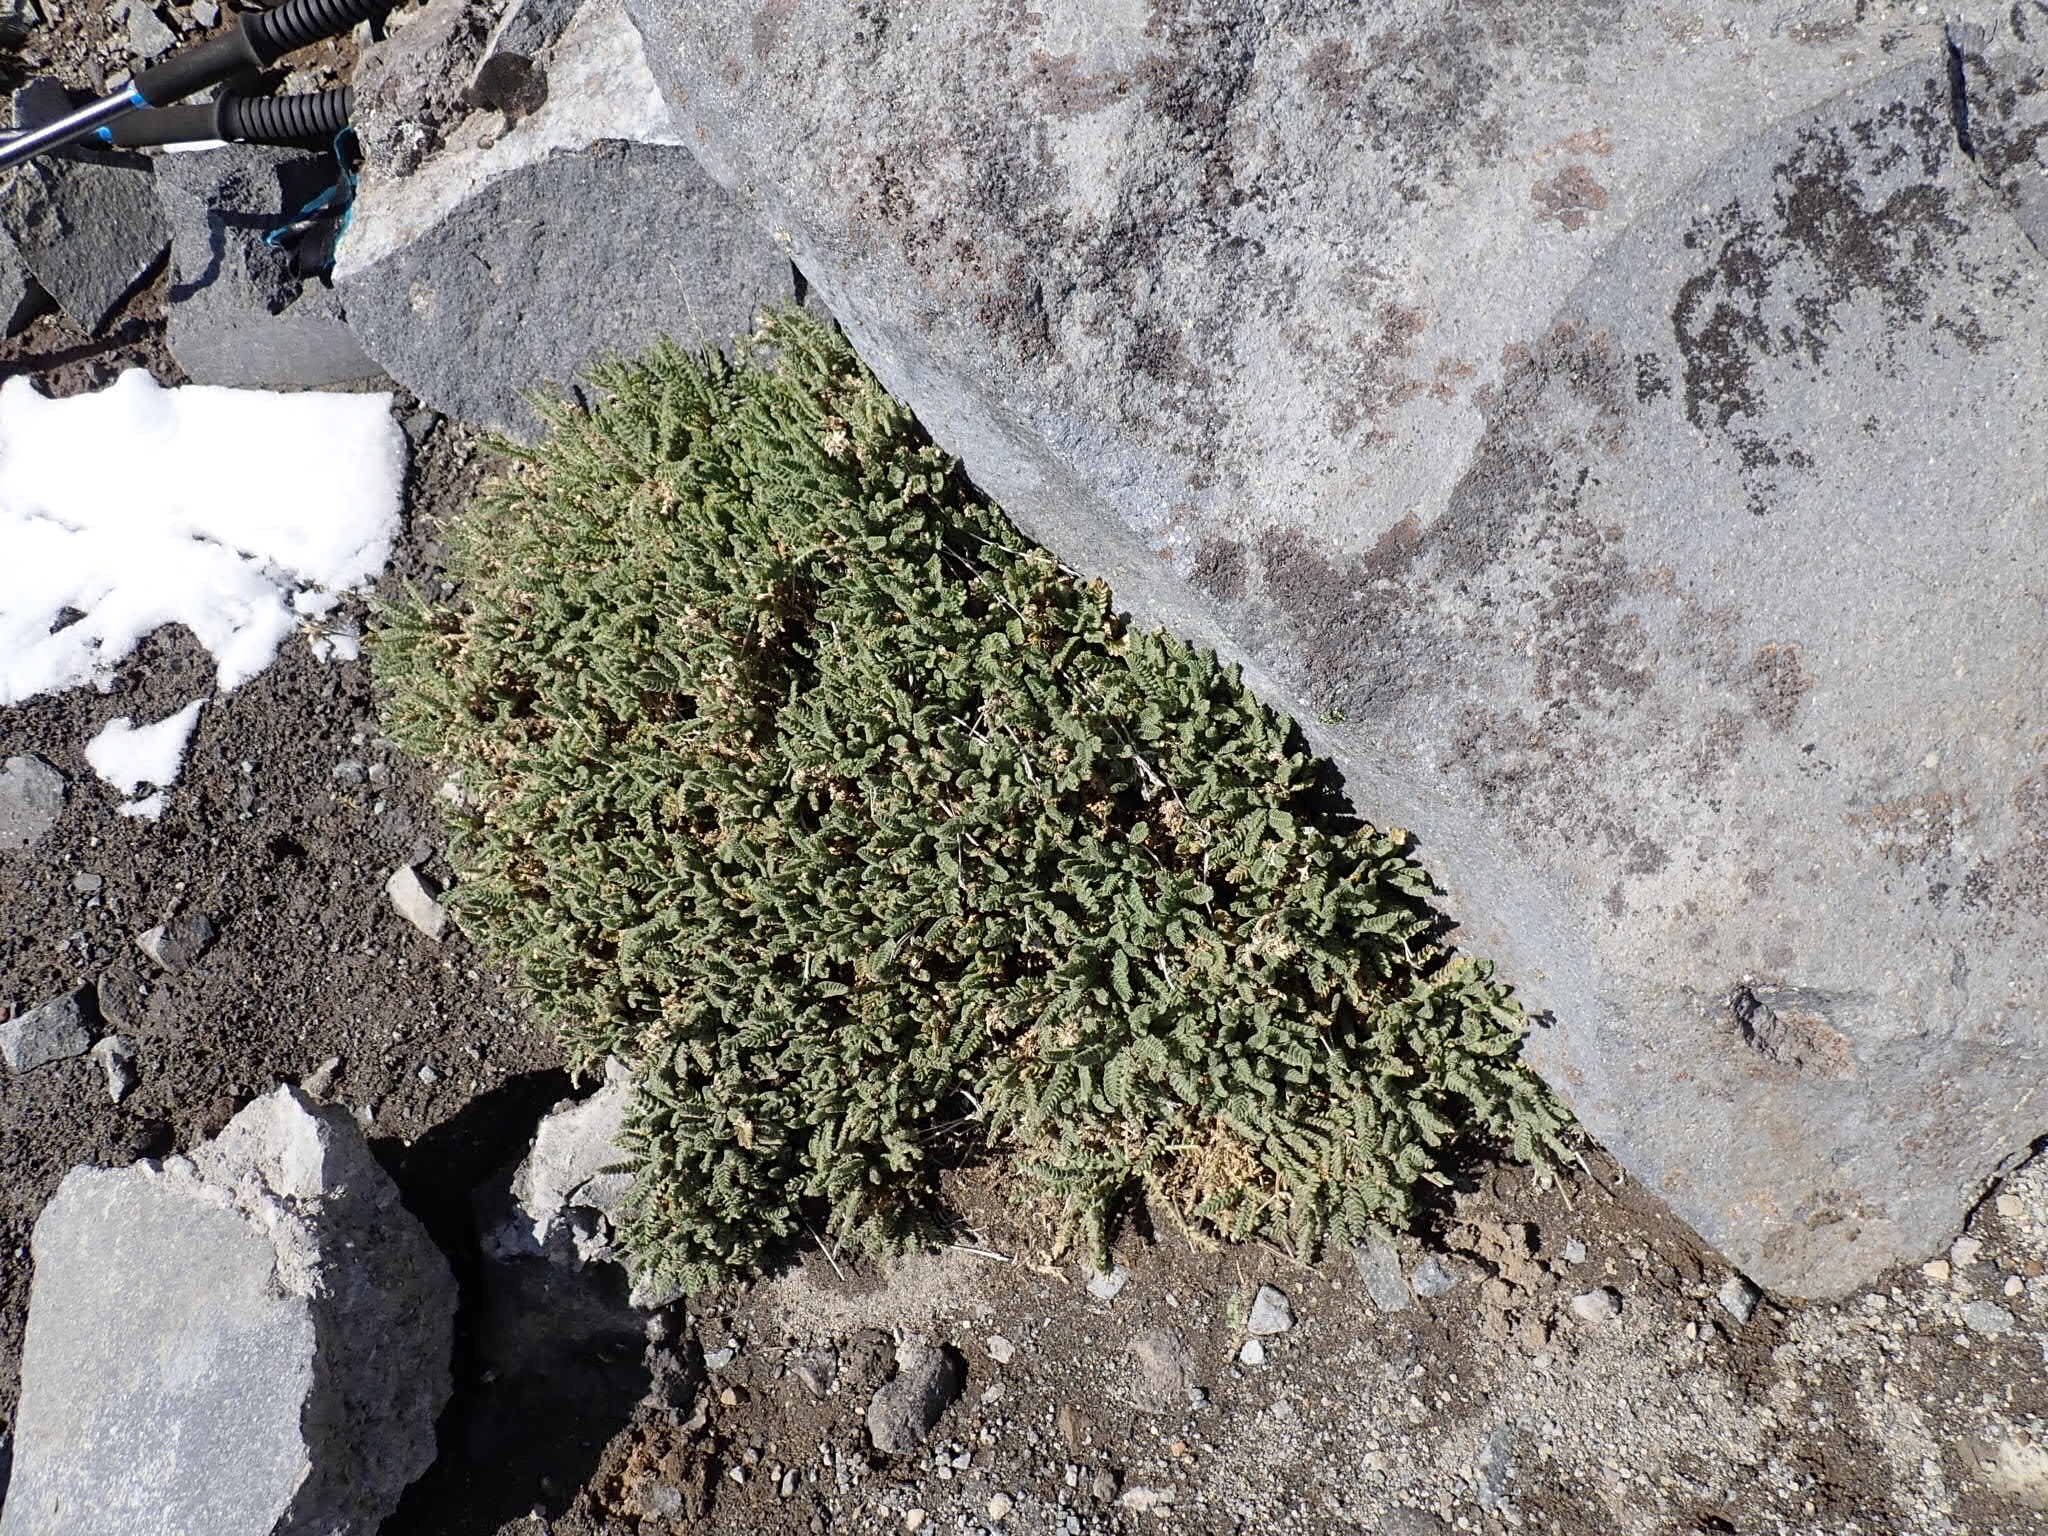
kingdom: Plantae
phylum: Tracheophyta
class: Magnoliopsida
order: Ericales
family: Polemoniaceae
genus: Polemonium
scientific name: Polemonium elegans
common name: Elegant jacob's-ladder
